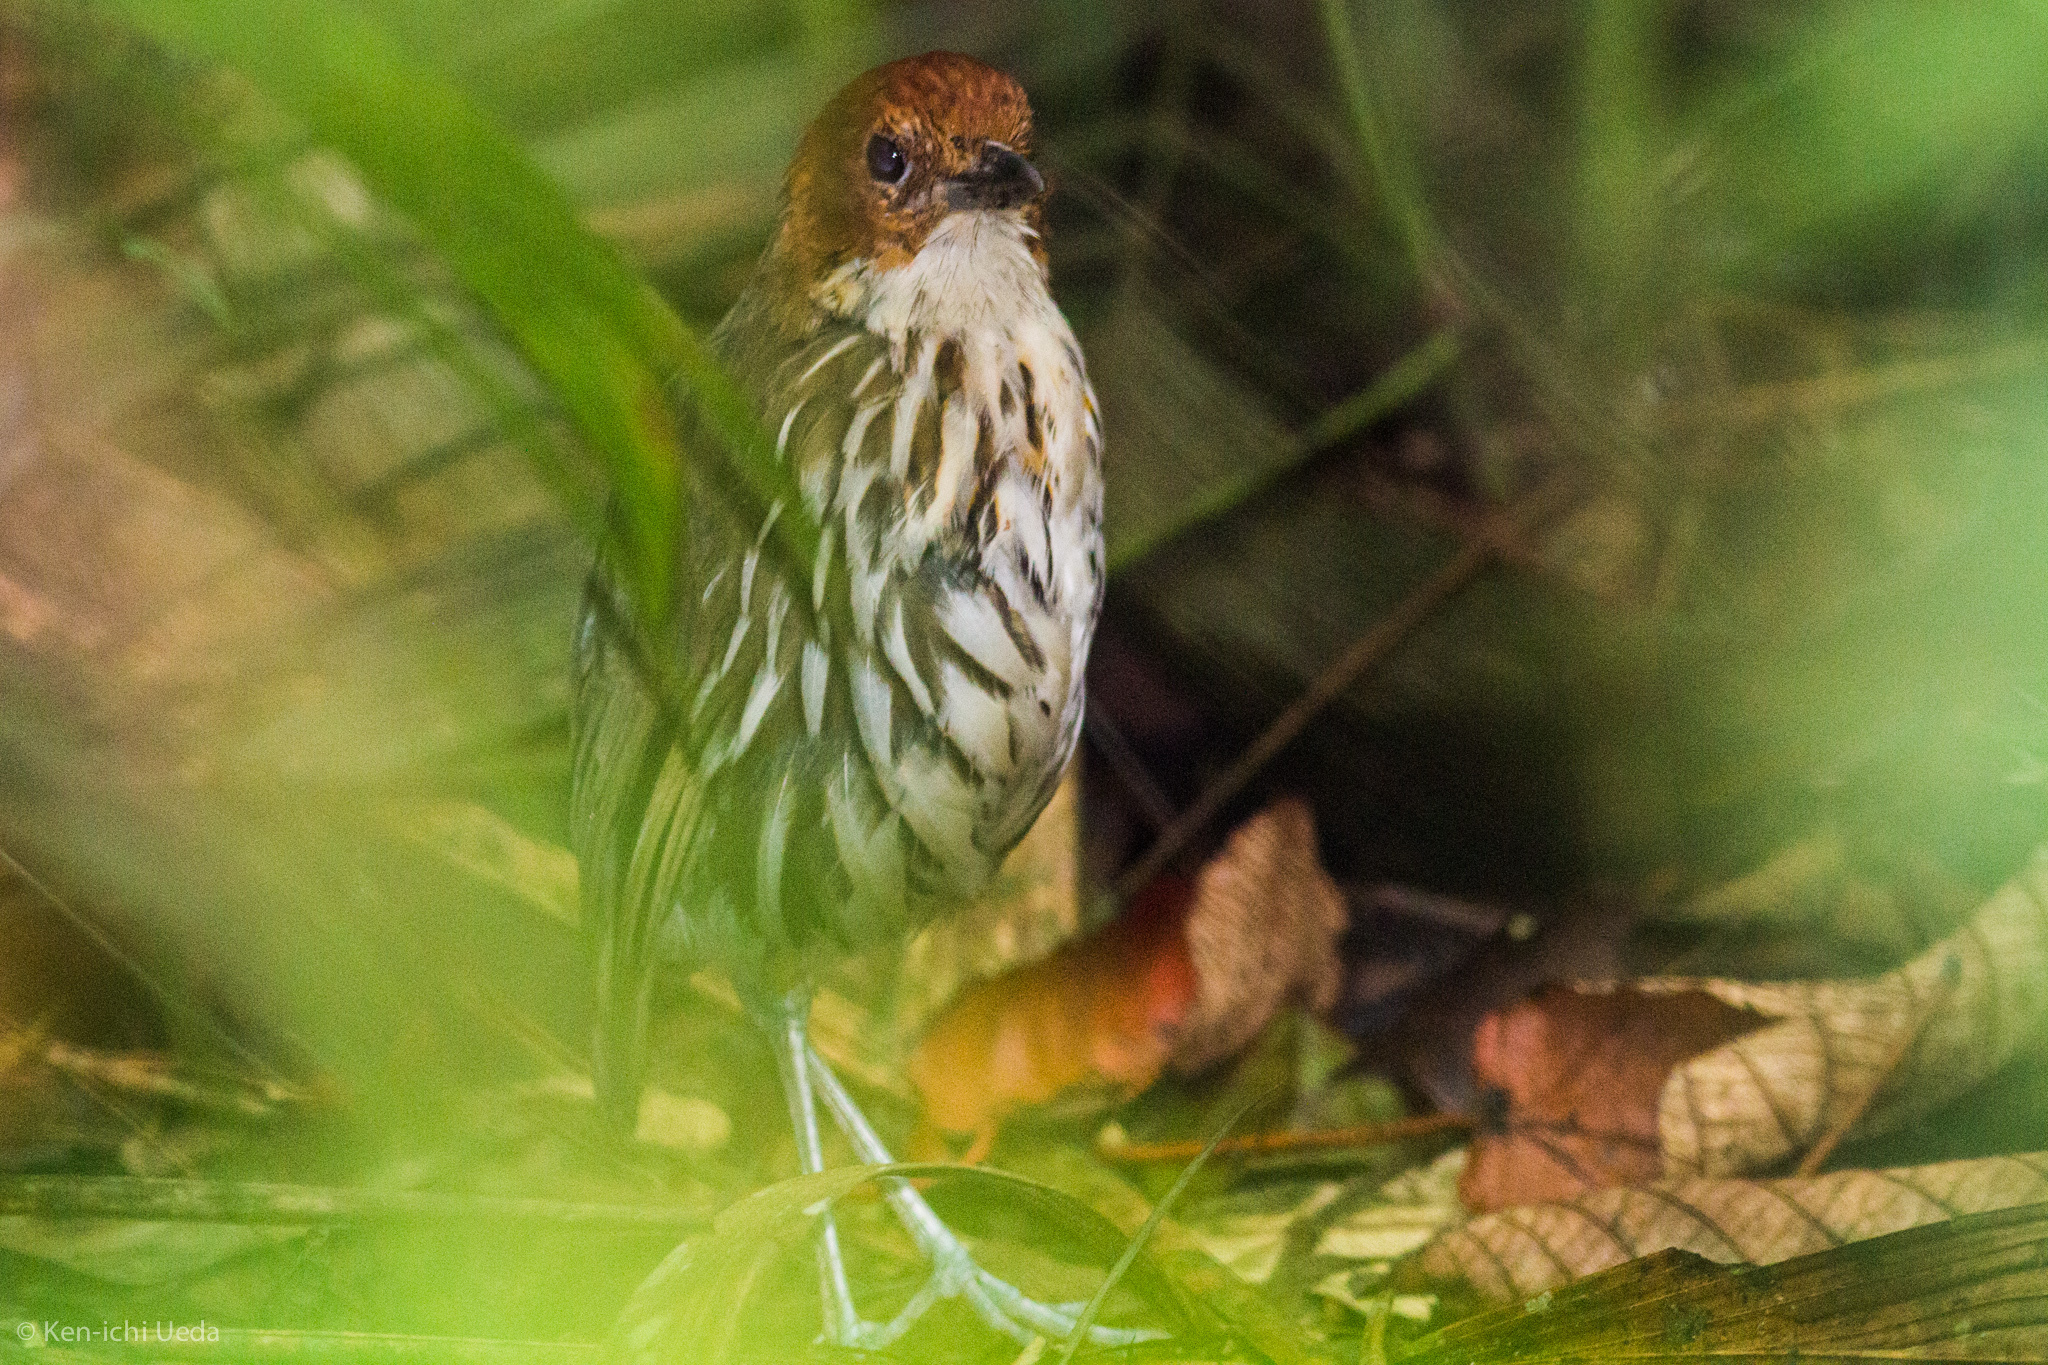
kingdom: Animalia
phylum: Chordata
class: Aves
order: Passeriformes
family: Grallariidae
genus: Grallaria
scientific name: Grallaria ruficapilla
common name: Chestnut-crowned antpitta
